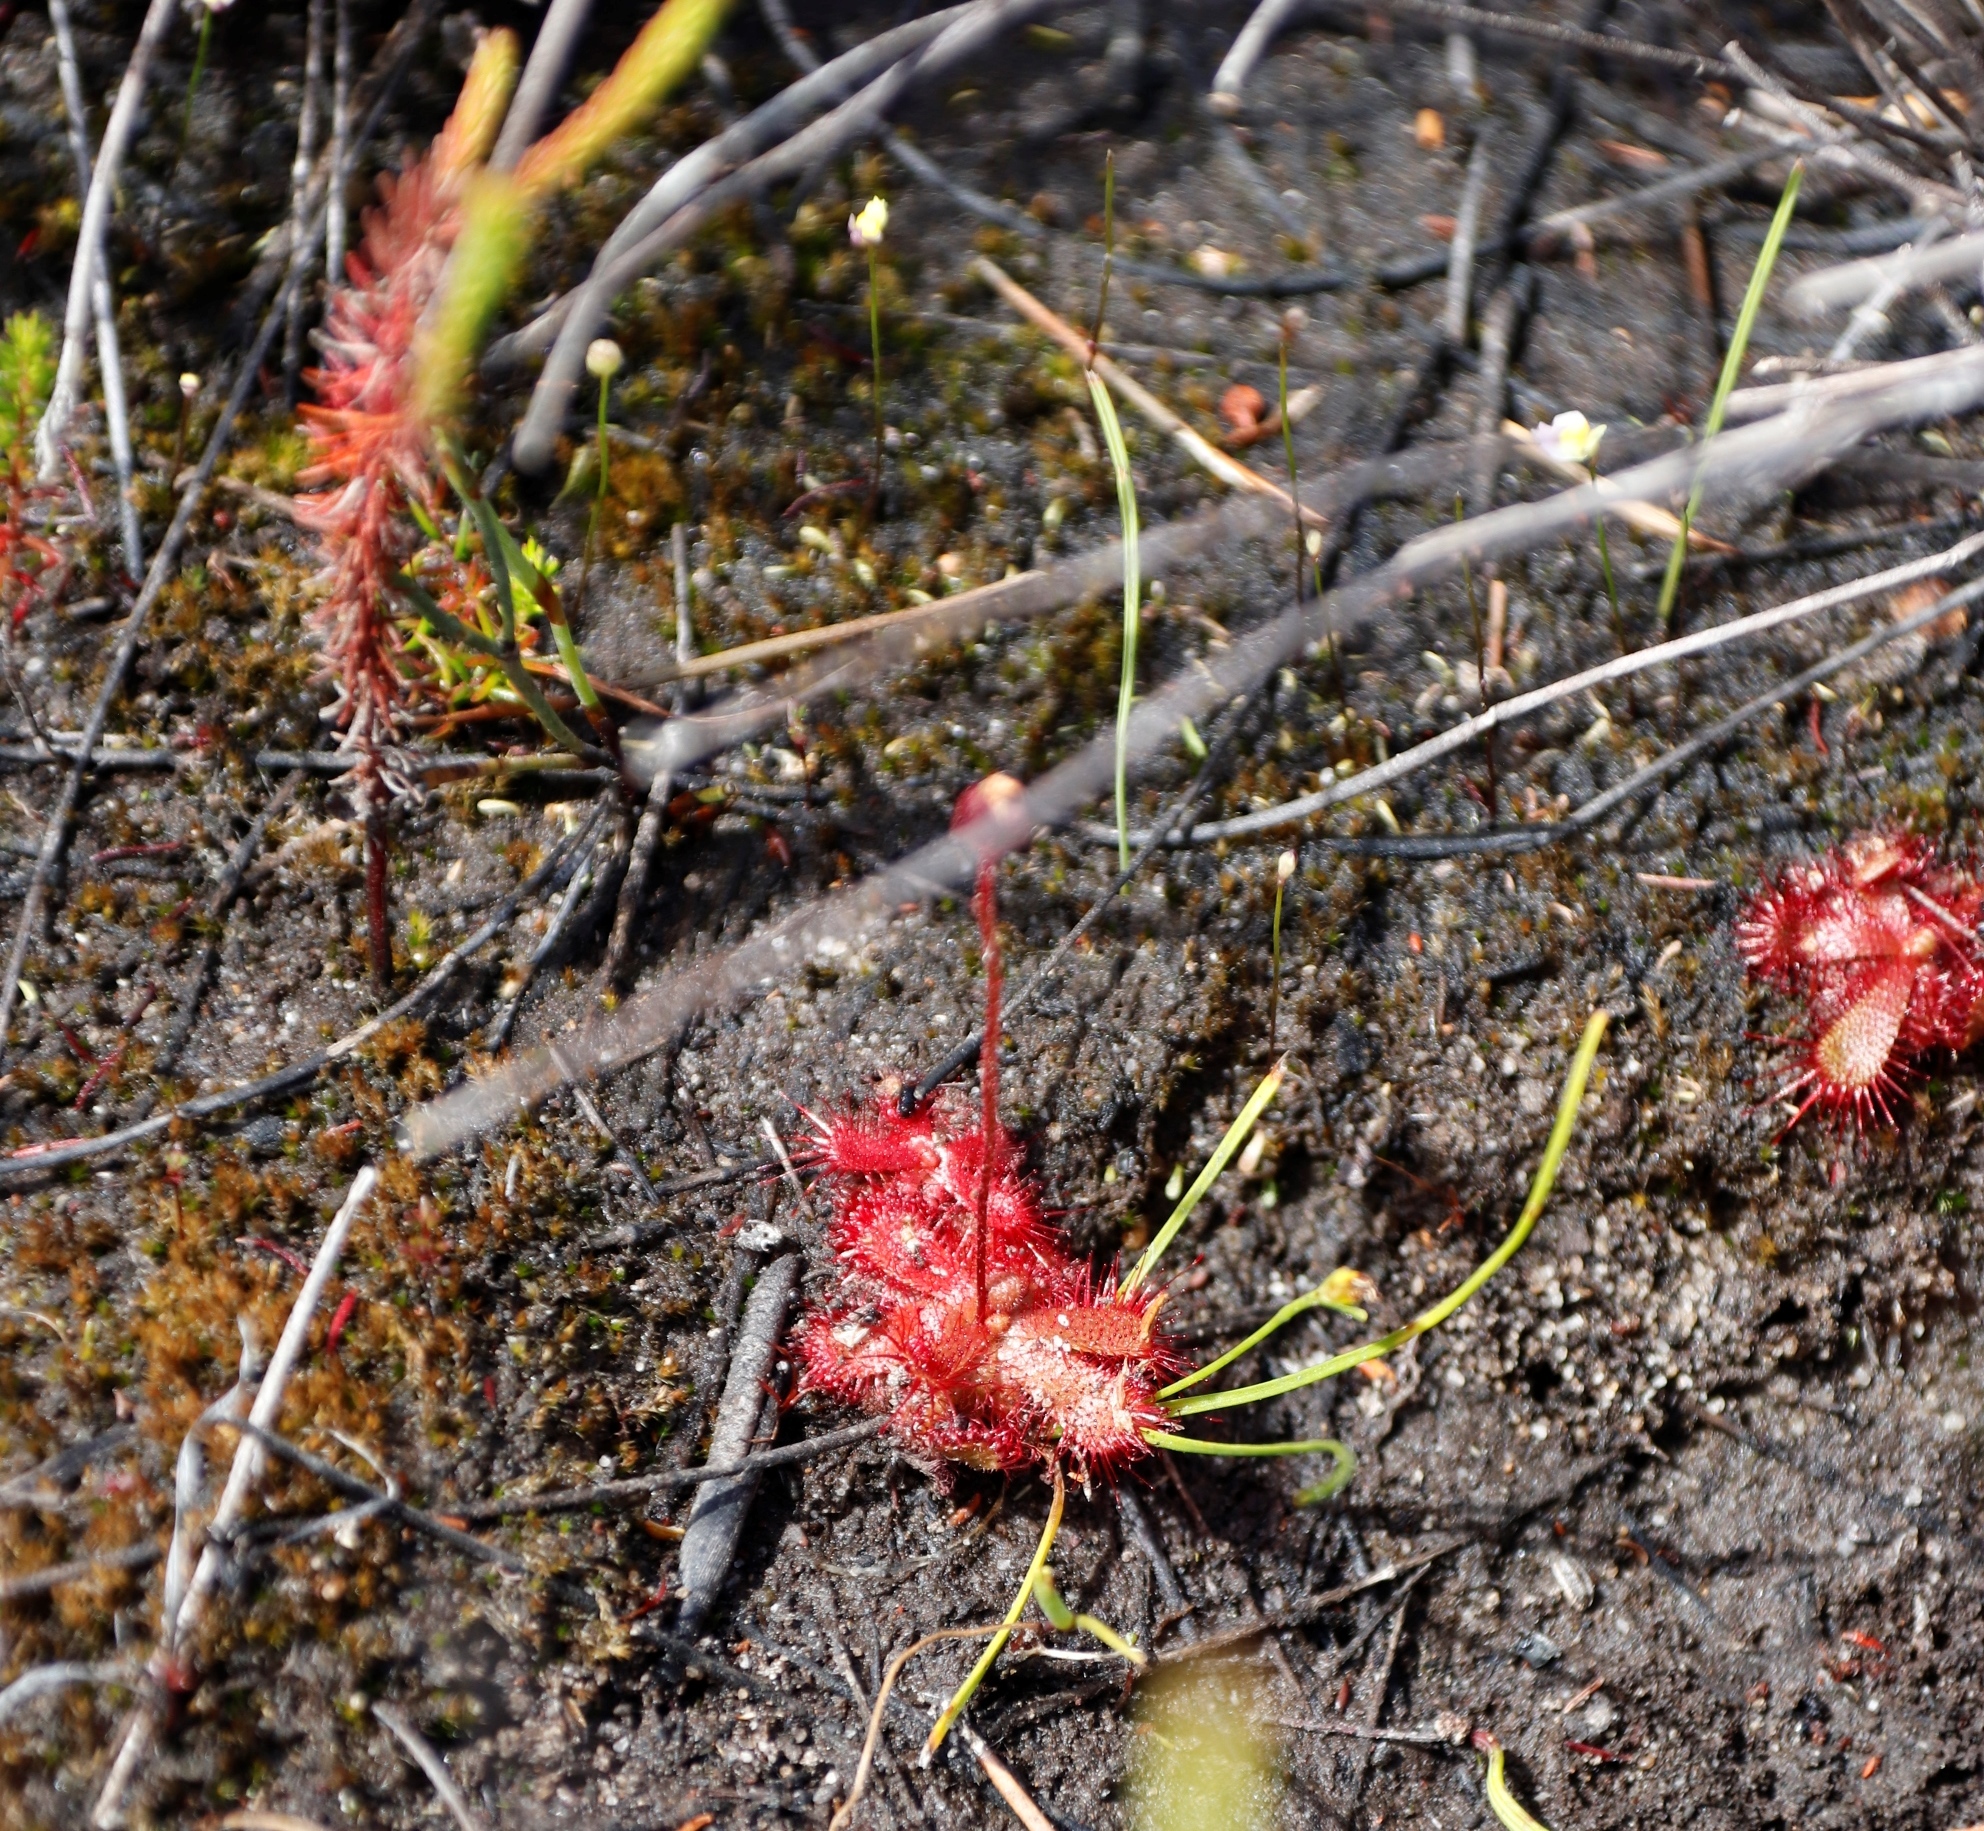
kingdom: Plantae
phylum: Tracheophyta
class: Magnoliopsida
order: Caryophyllales
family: Droseraceae
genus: Drosera
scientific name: Drosera trinervia
